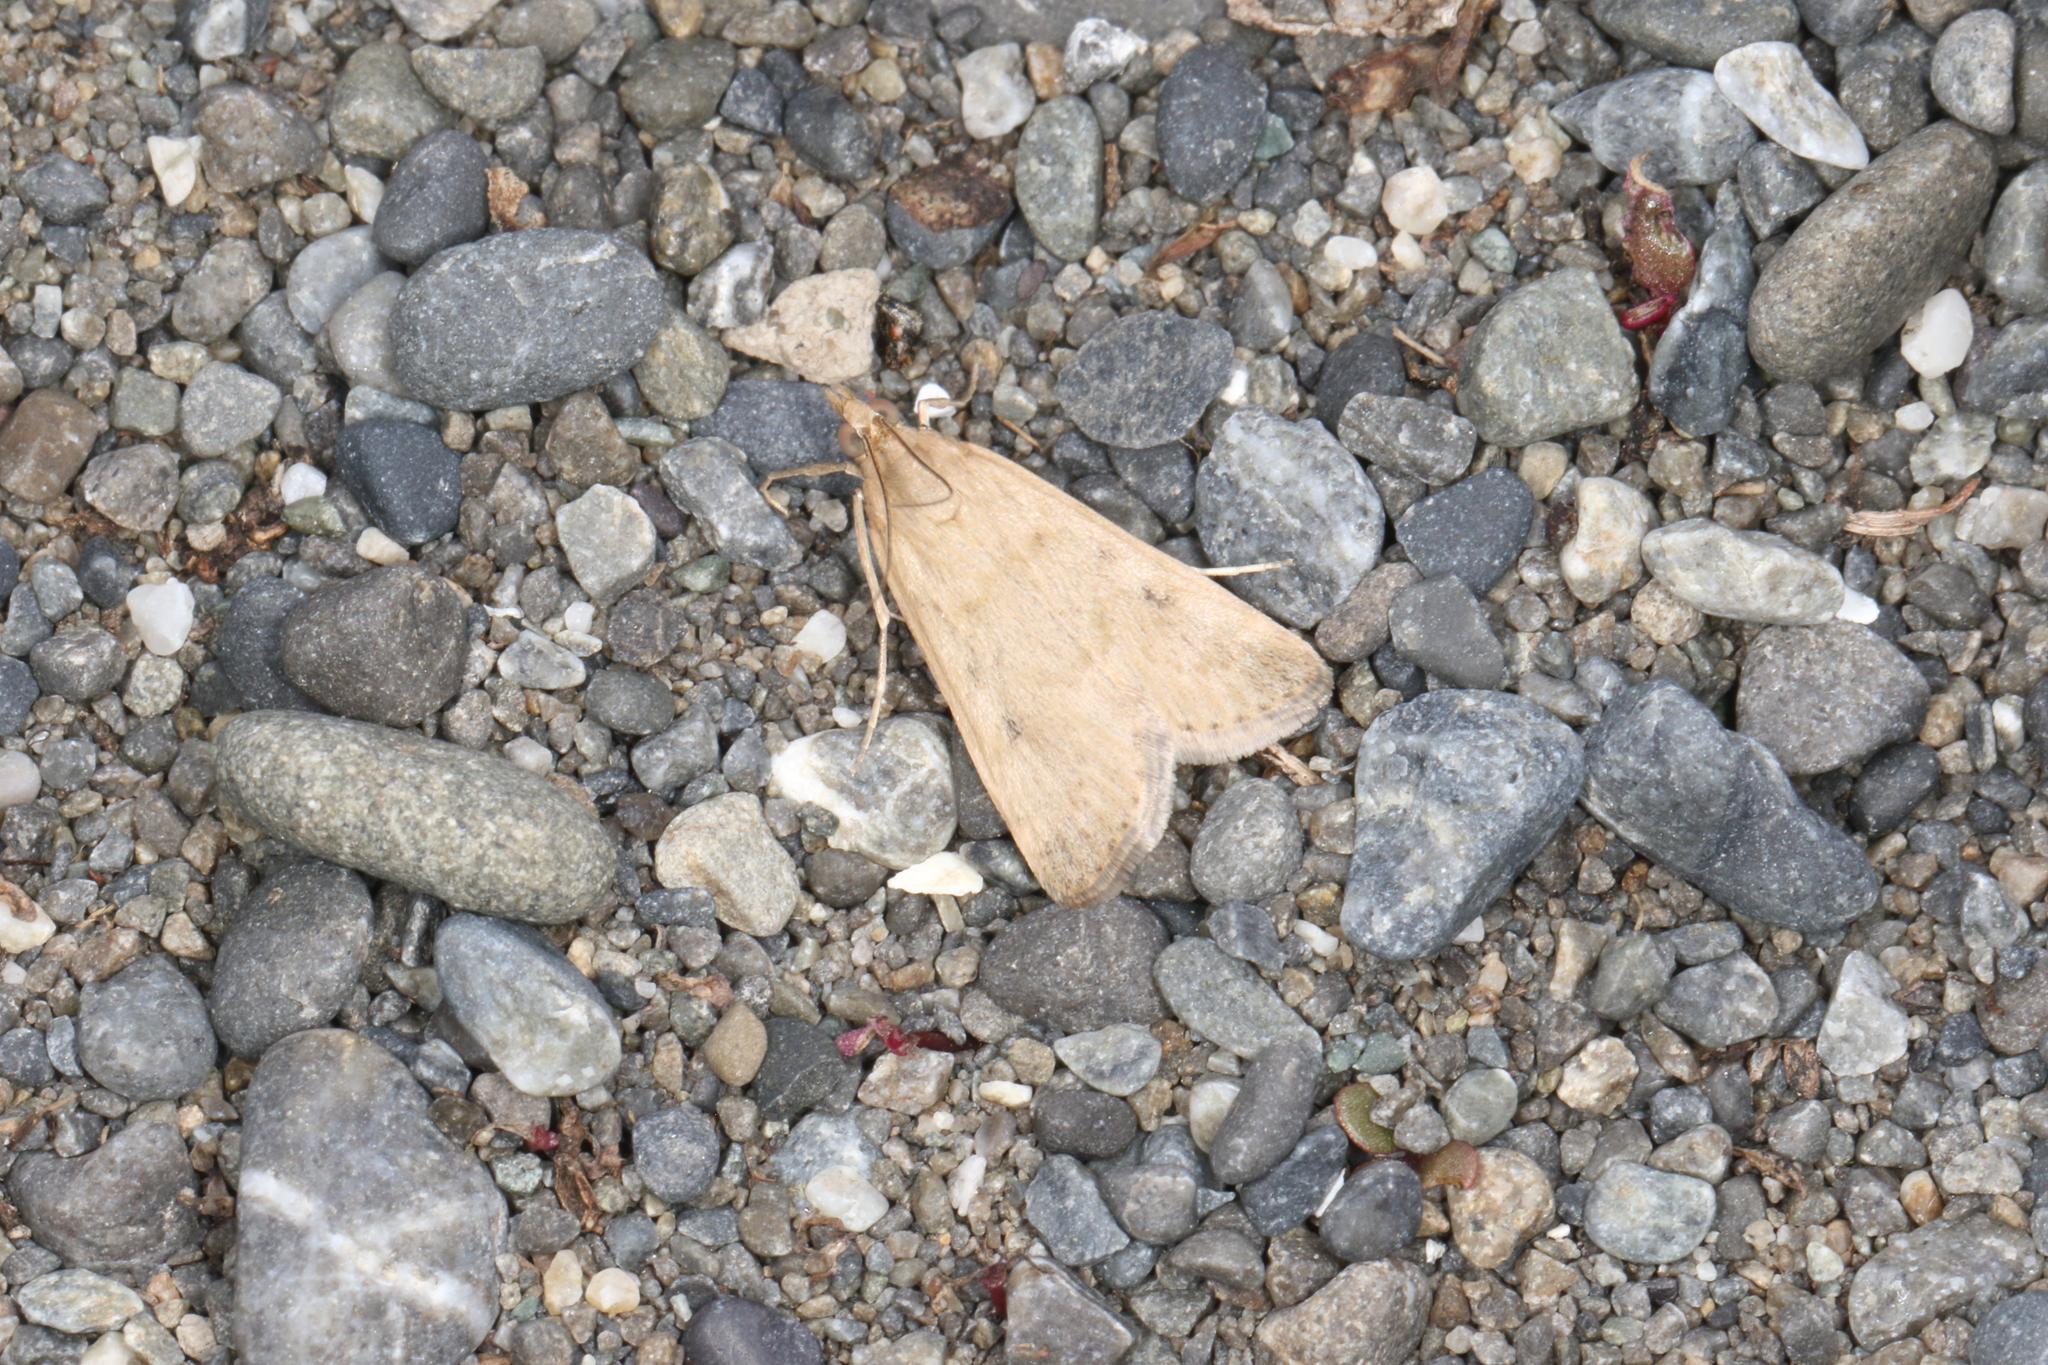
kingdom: Animalia
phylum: Arthropoda
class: Insecta
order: Lepidoptera
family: Crambidae
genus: Achyra
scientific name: Achyra affinitalis
